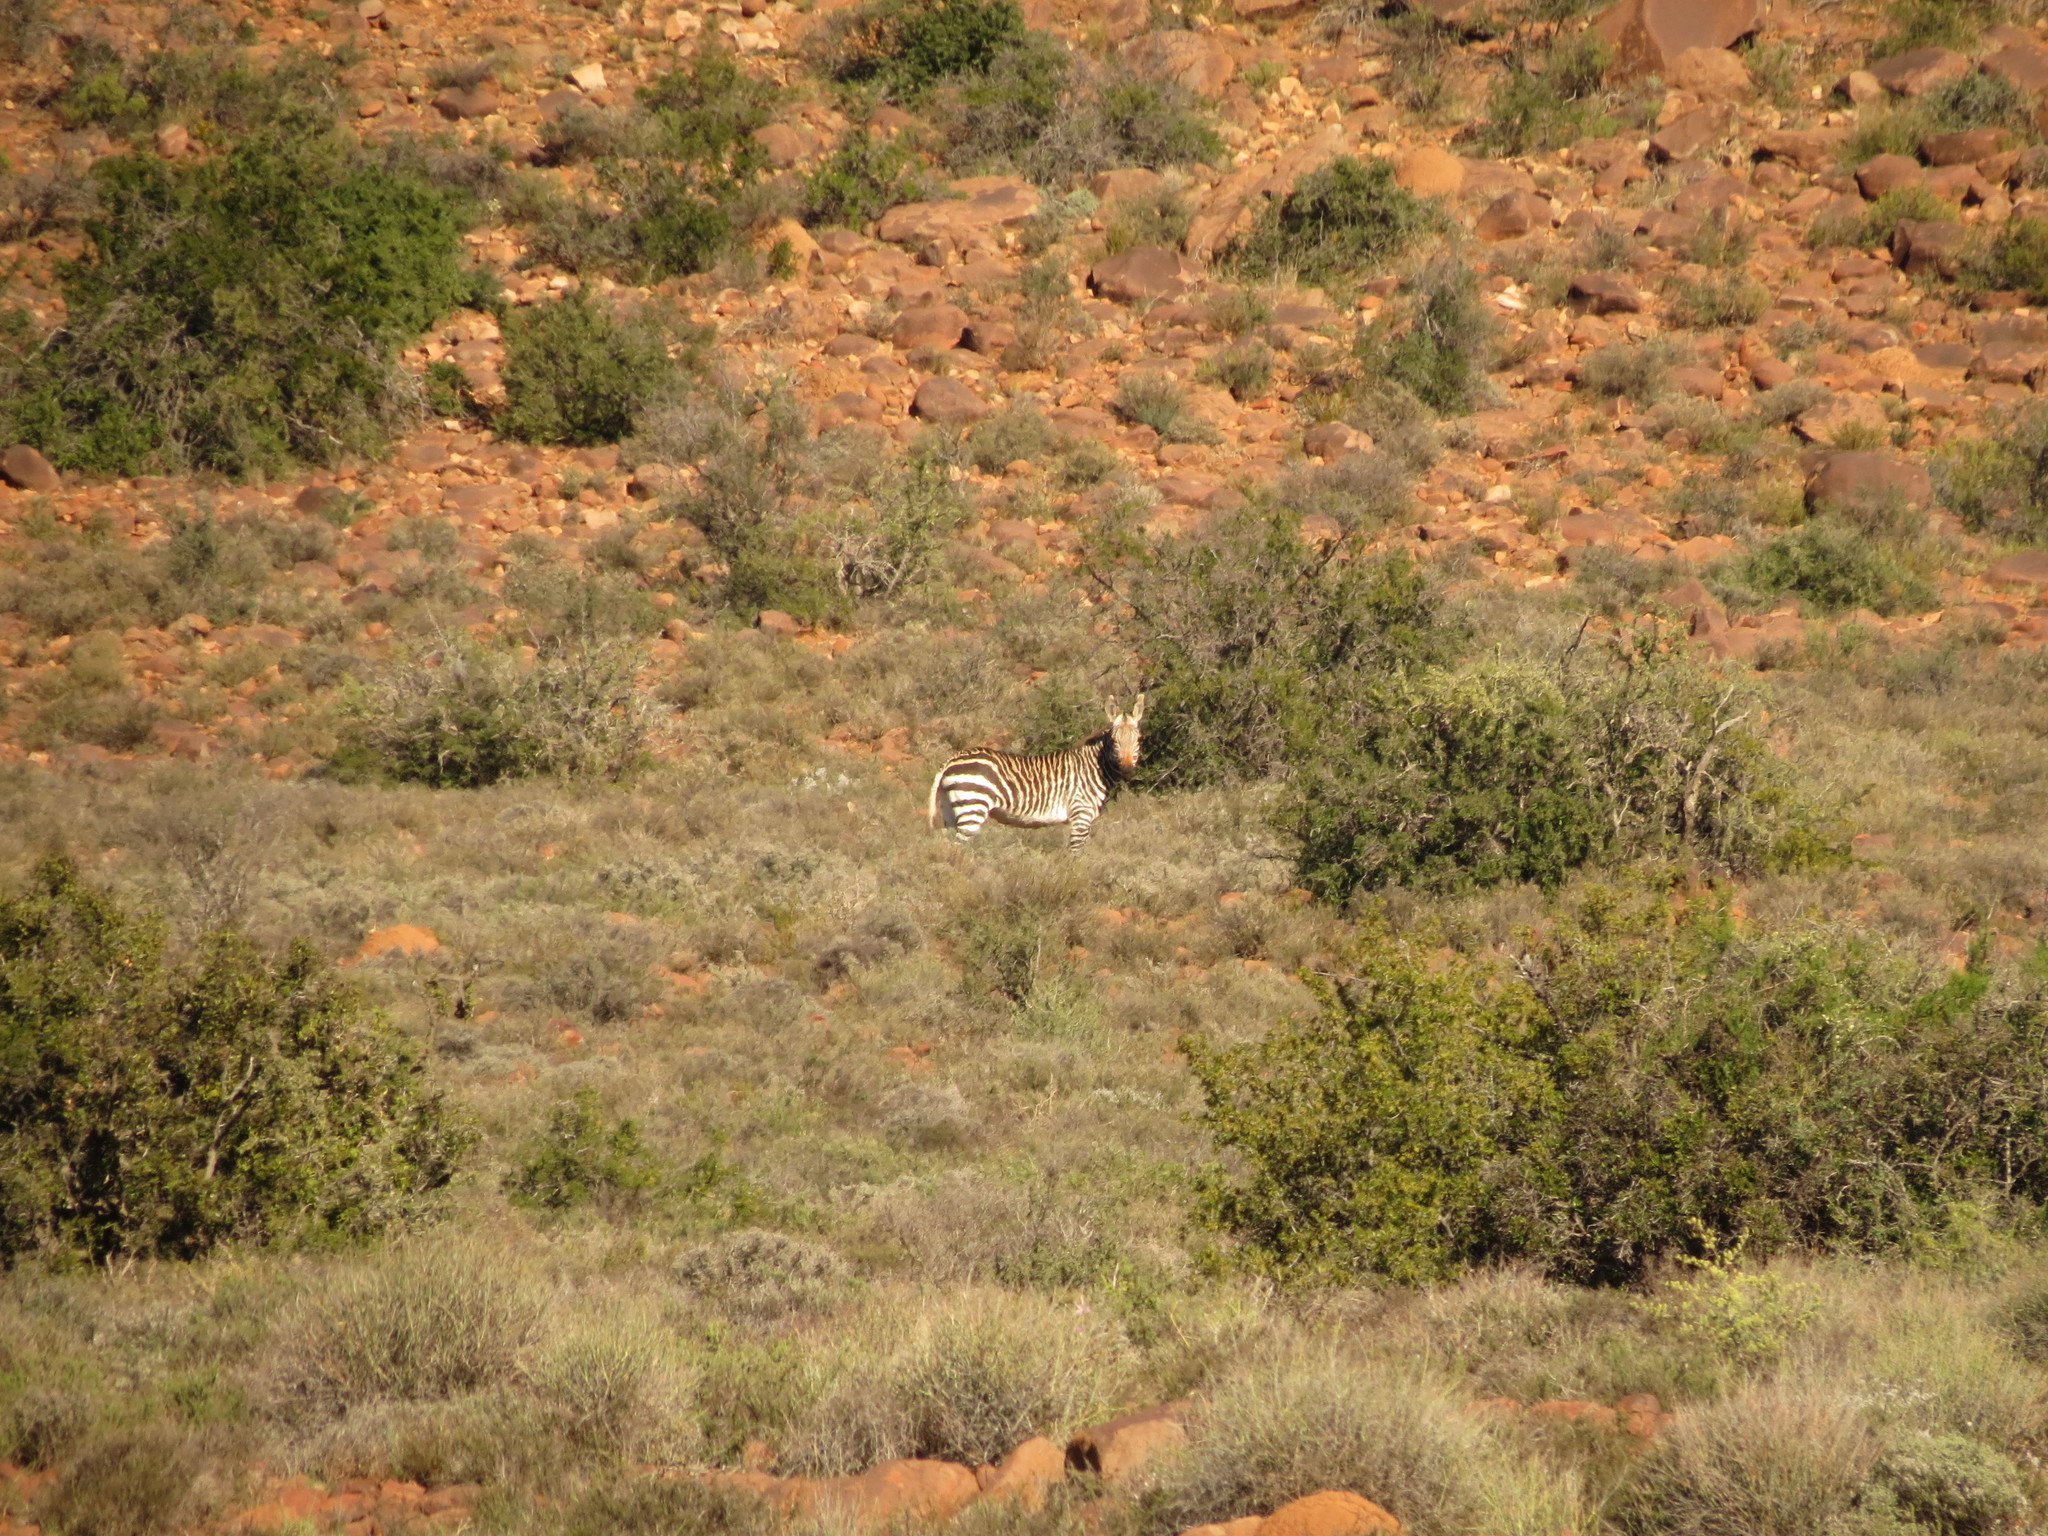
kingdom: Animalia
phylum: Chordata
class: Mammalia
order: Perissodactyla
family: Equidae
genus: Equus
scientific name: Equus zebra
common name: Mountain zebra
